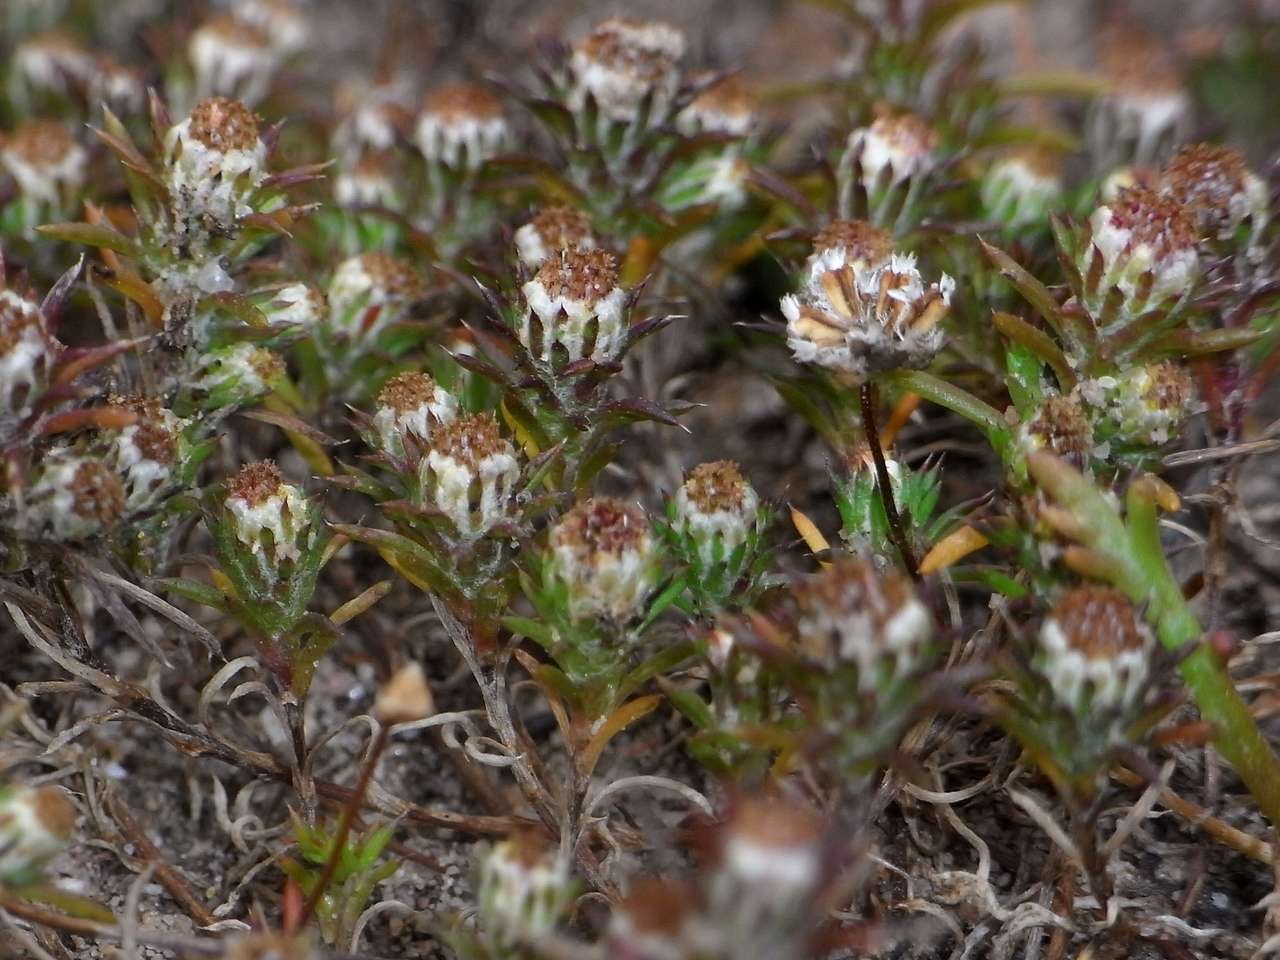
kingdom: Plantae
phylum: Tracheophyta
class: Magnoliopsida
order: Asterales
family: Asteraceae
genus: Pogonolepis
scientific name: Pogonolepis muelleriana
